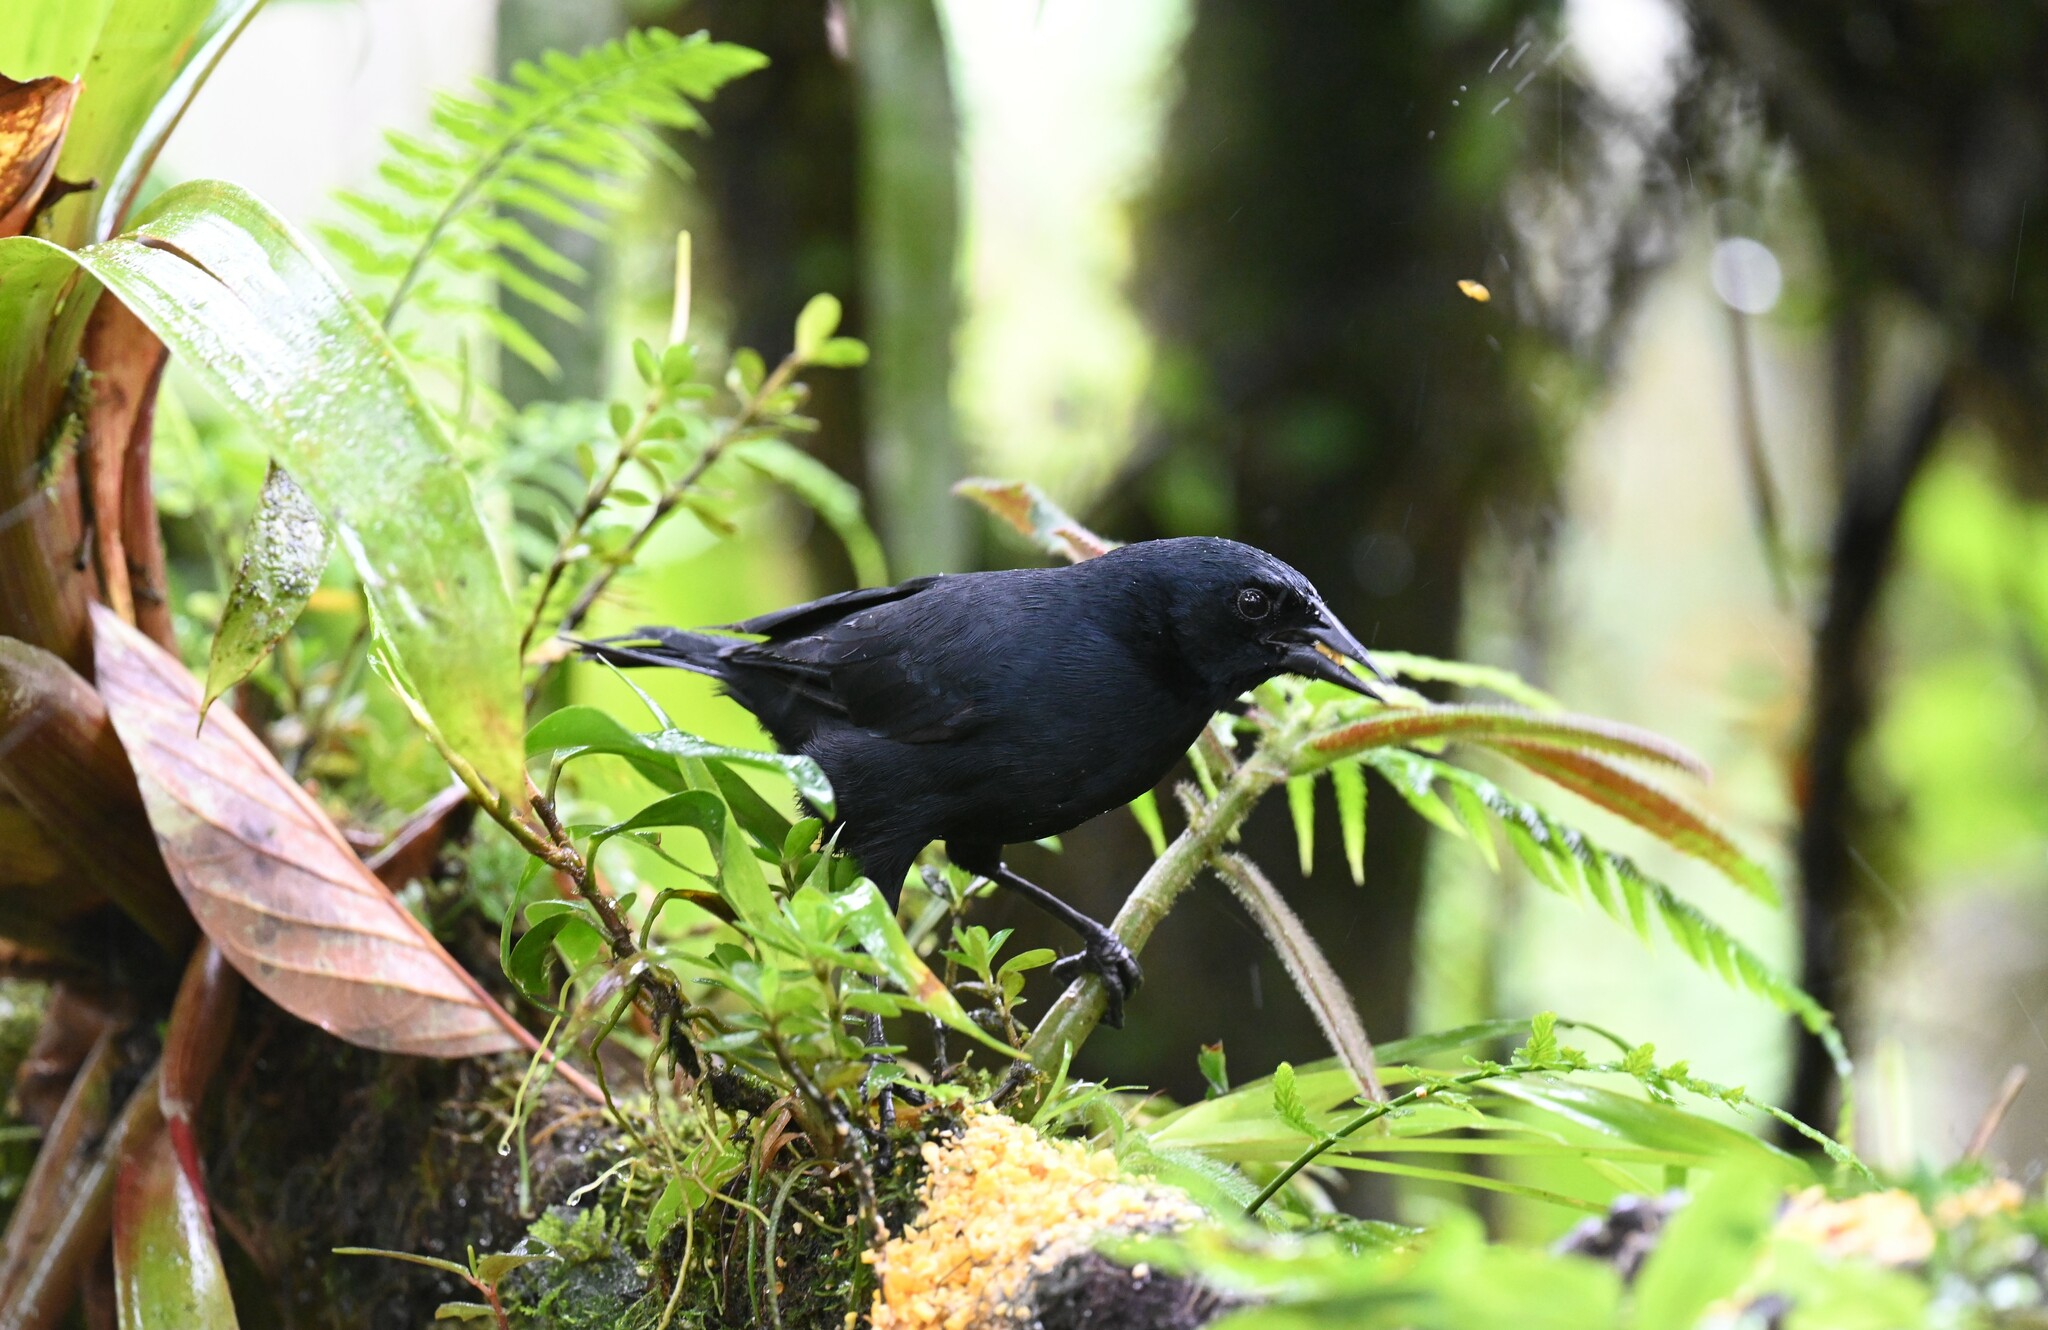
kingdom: Animalia
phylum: Chordata
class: Aves
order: Passeriformes
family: Icteridae
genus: Dives
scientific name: Dives warczewiczi
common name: Scrub blackbird
